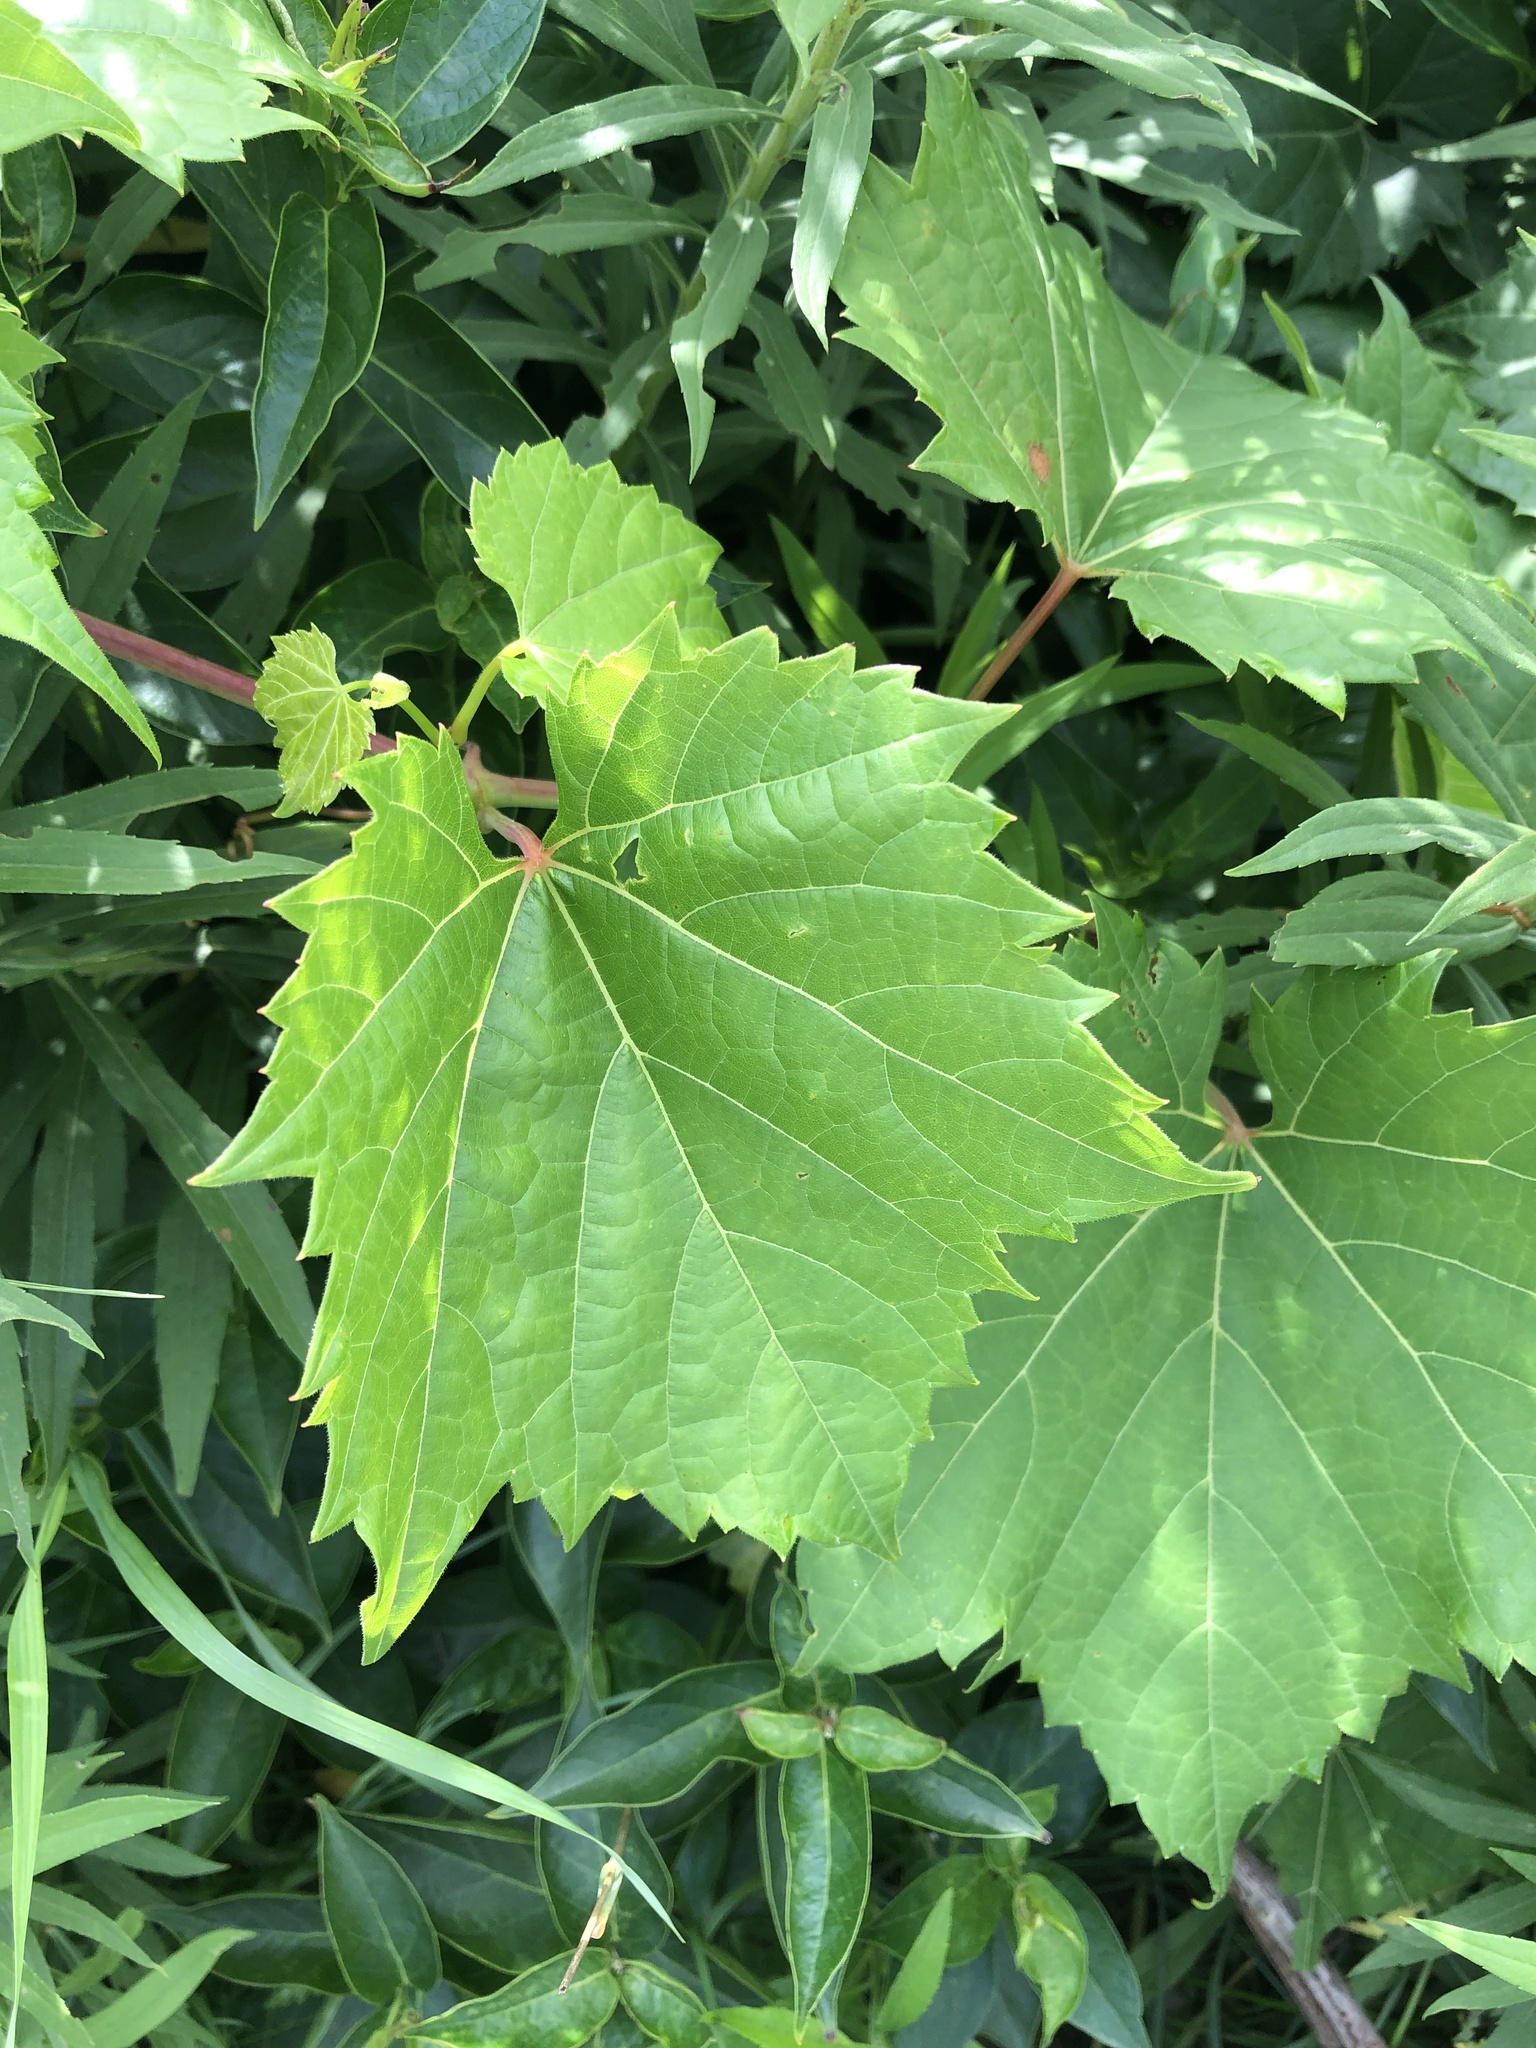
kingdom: Plantae
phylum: Tracheophyta
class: Magnoliopsida
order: Vitales
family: Vitaceae
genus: Vitis
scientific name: Vitis riparia
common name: Frost grape
